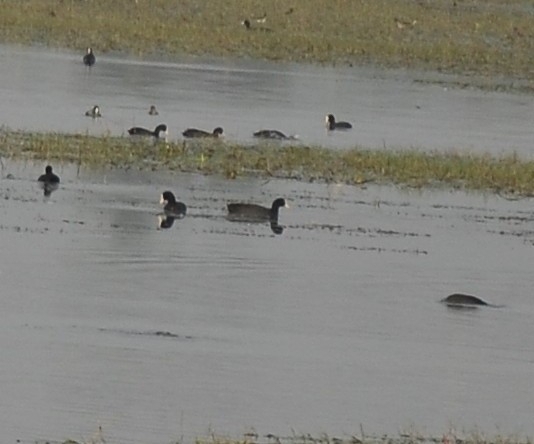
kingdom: Animalia
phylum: Chordata
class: Aves
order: Gruiformes
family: Rallidae
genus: Fulica
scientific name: Fulica atra
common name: Eurasian coot
